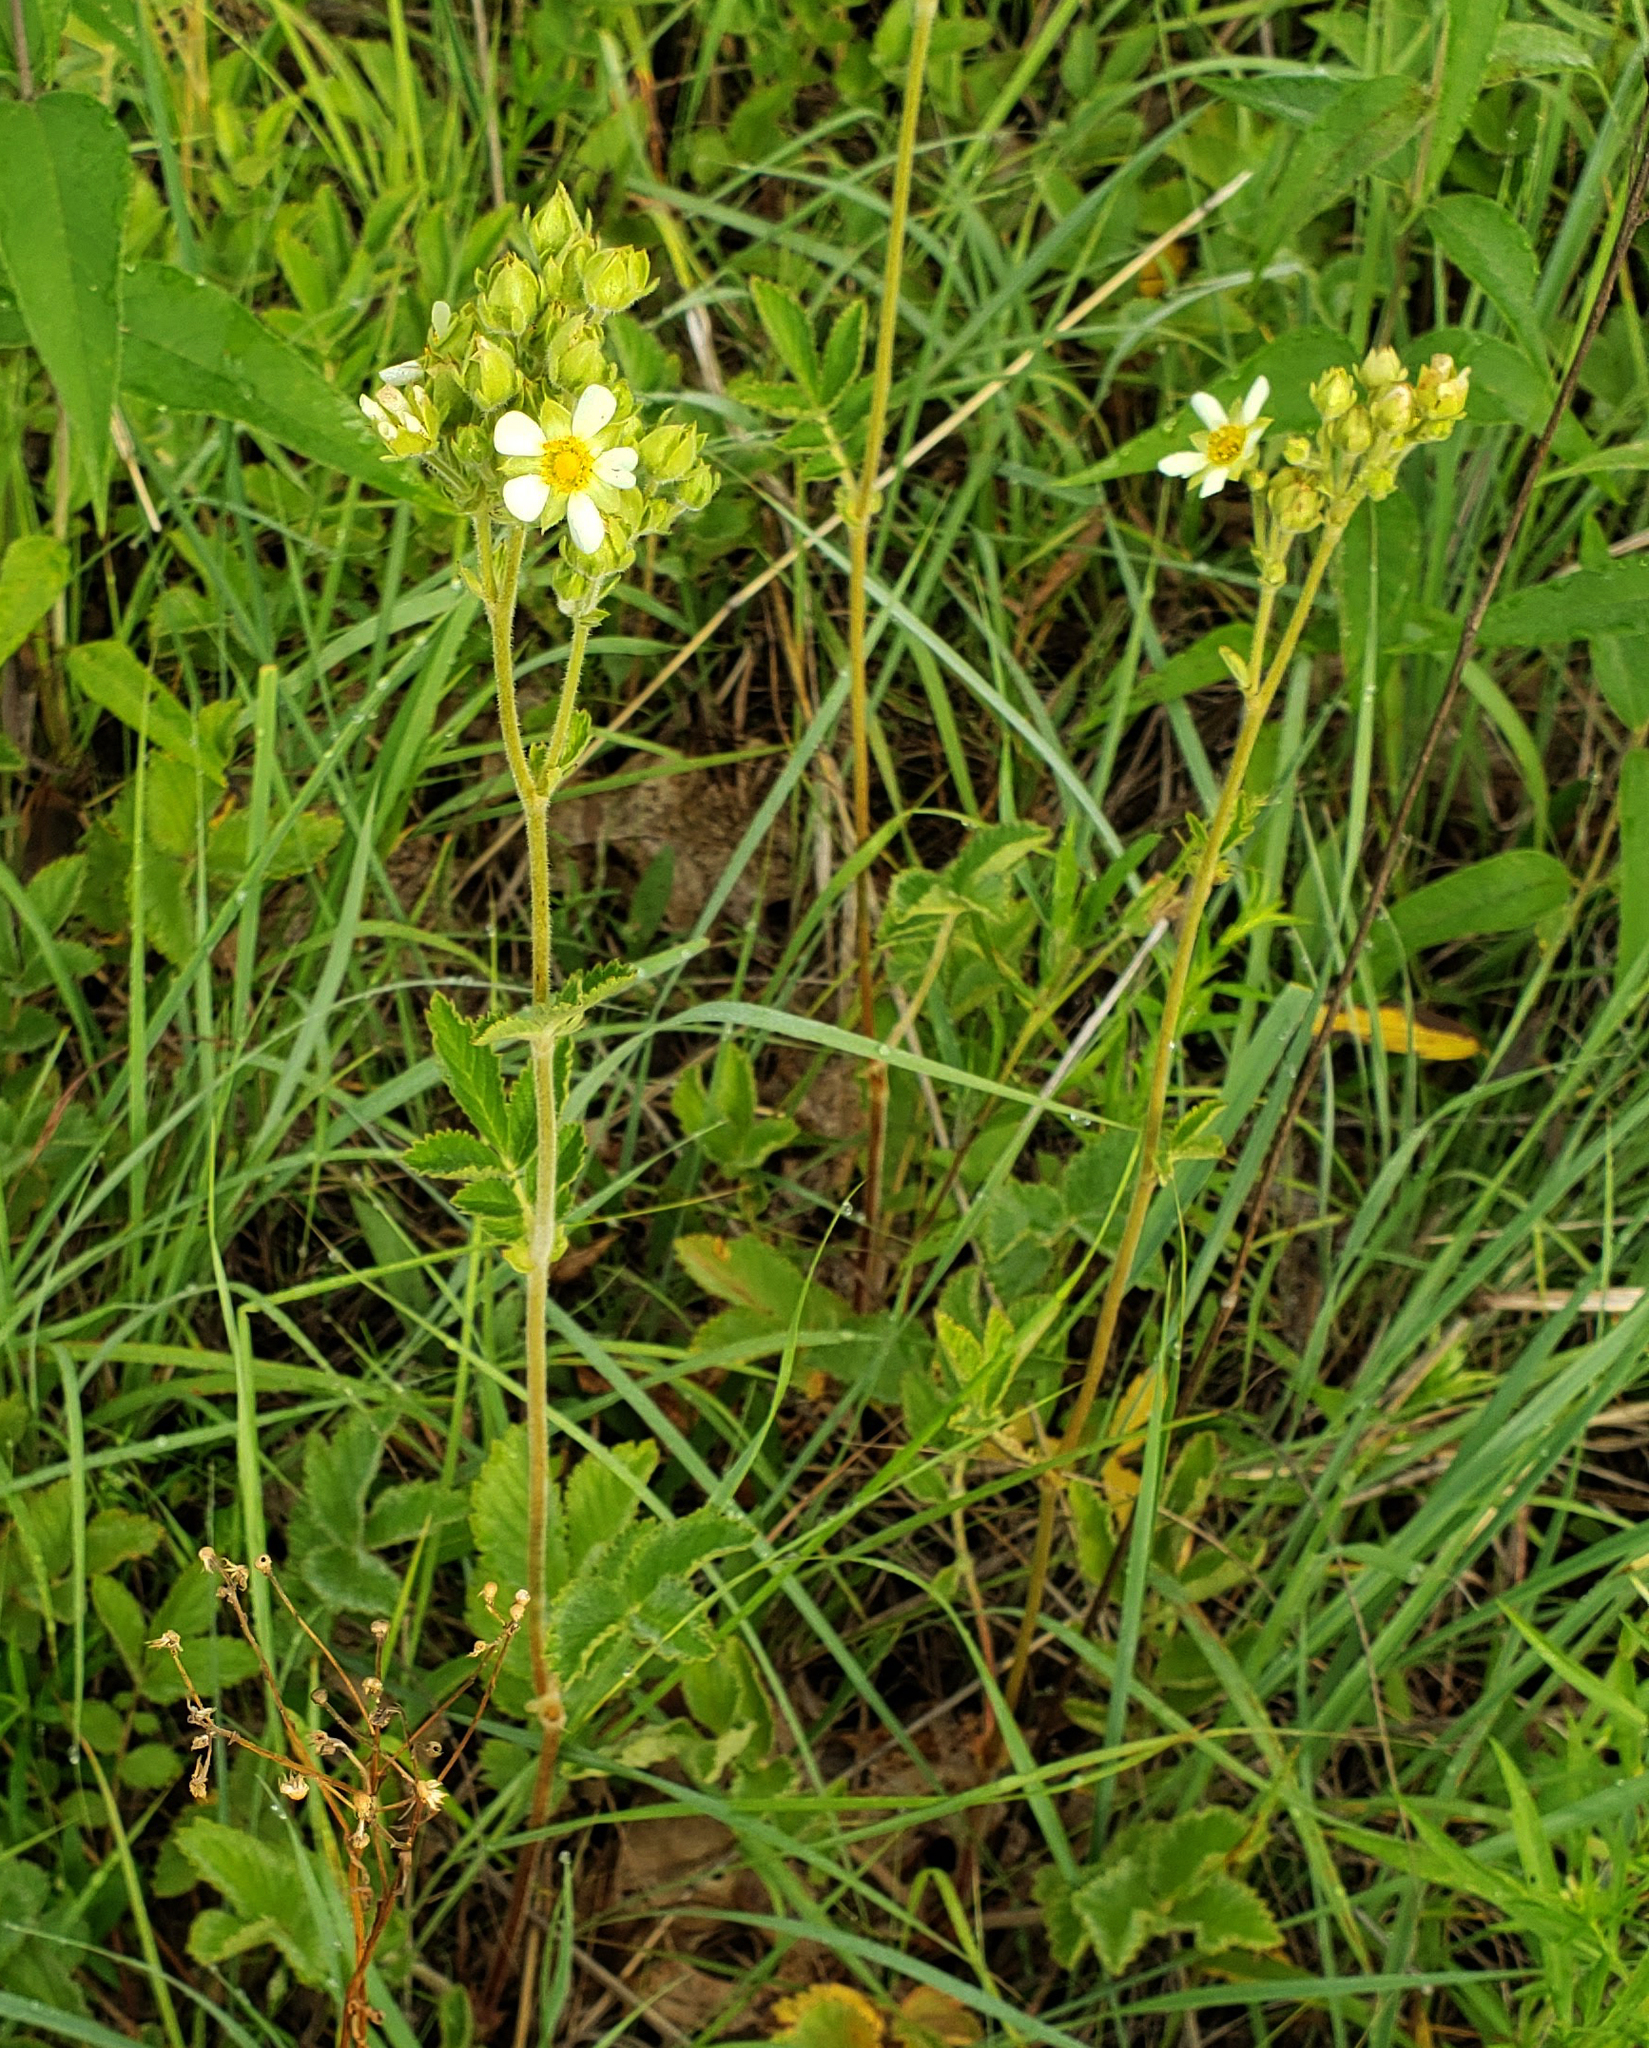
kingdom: Plantae
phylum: Tracheophyta
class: Magnoliopsida
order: Rosales
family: Rosaceae
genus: Drymocallis
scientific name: Drymocallis arguta
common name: Tall cinquefoil
